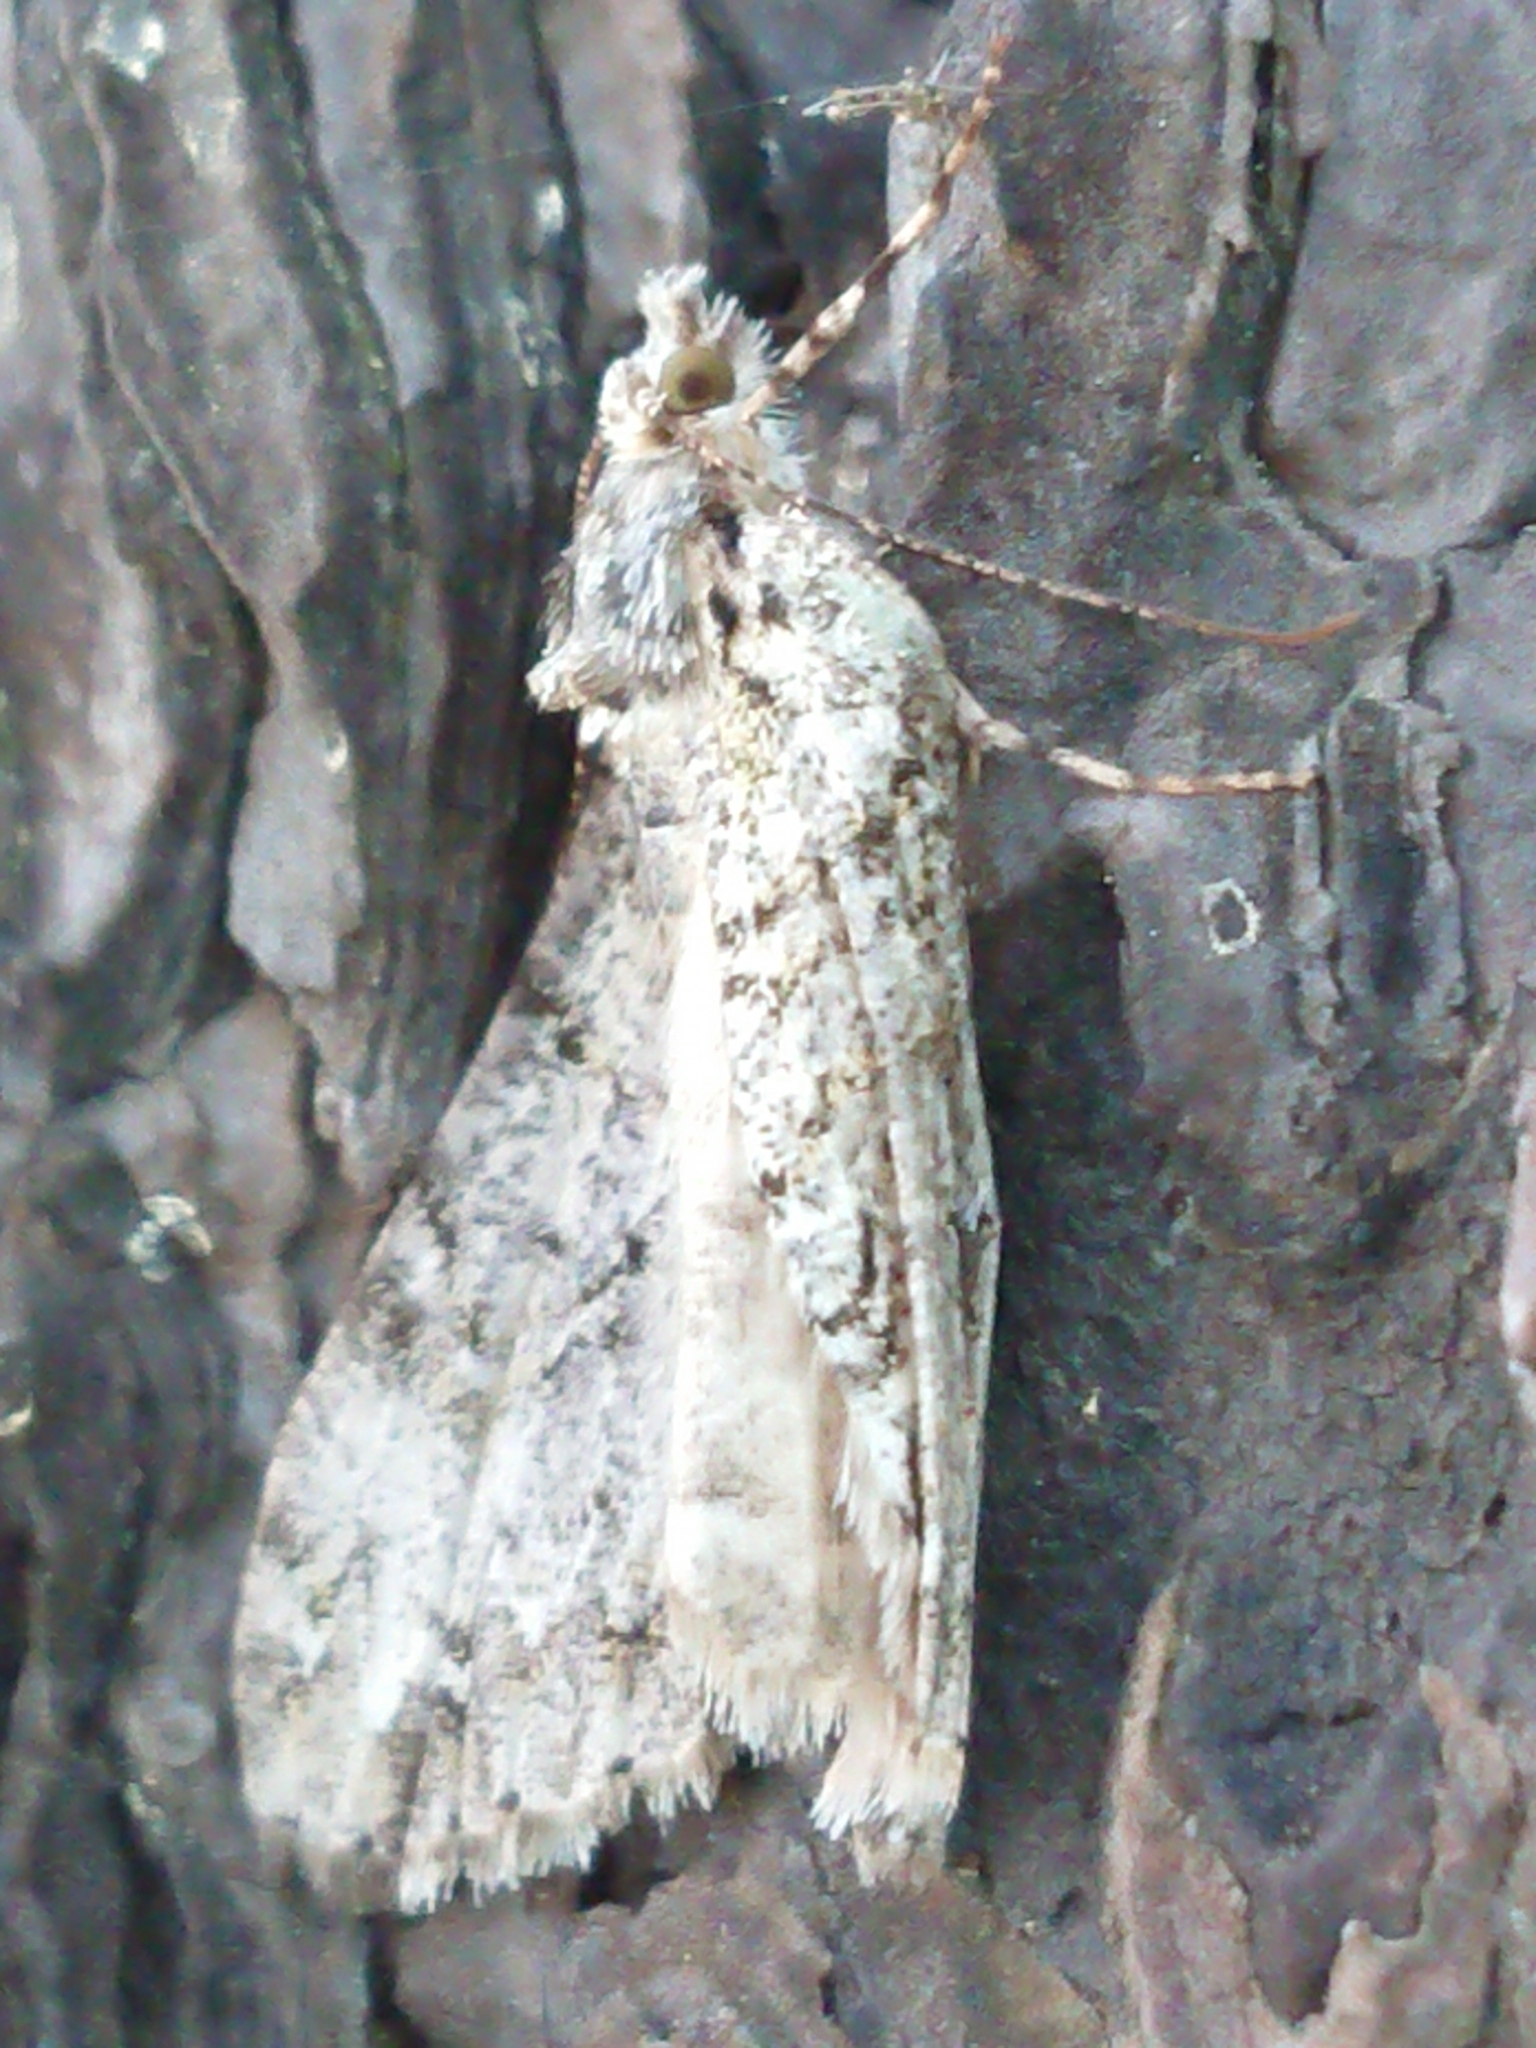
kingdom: Animalia
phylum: Arthropoda
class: Insecta
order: Lepidoptera
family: Geometridae
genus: Pseudocoremia
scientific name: Pseudocoremia suavis
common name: Common forest looper
